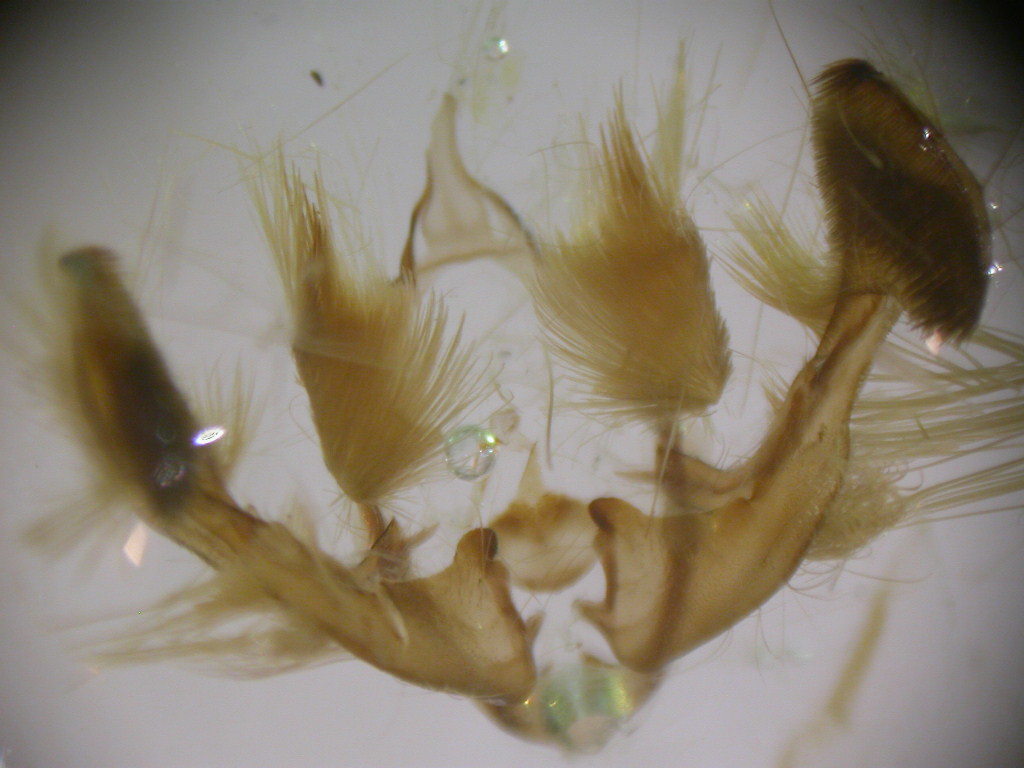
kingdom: Animalia
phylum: Arthropoda
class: Insecta
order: Lepidoptera
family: Noctuidae
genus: Mesapamea
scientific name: Mesapamea secalis
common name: Common rustic
